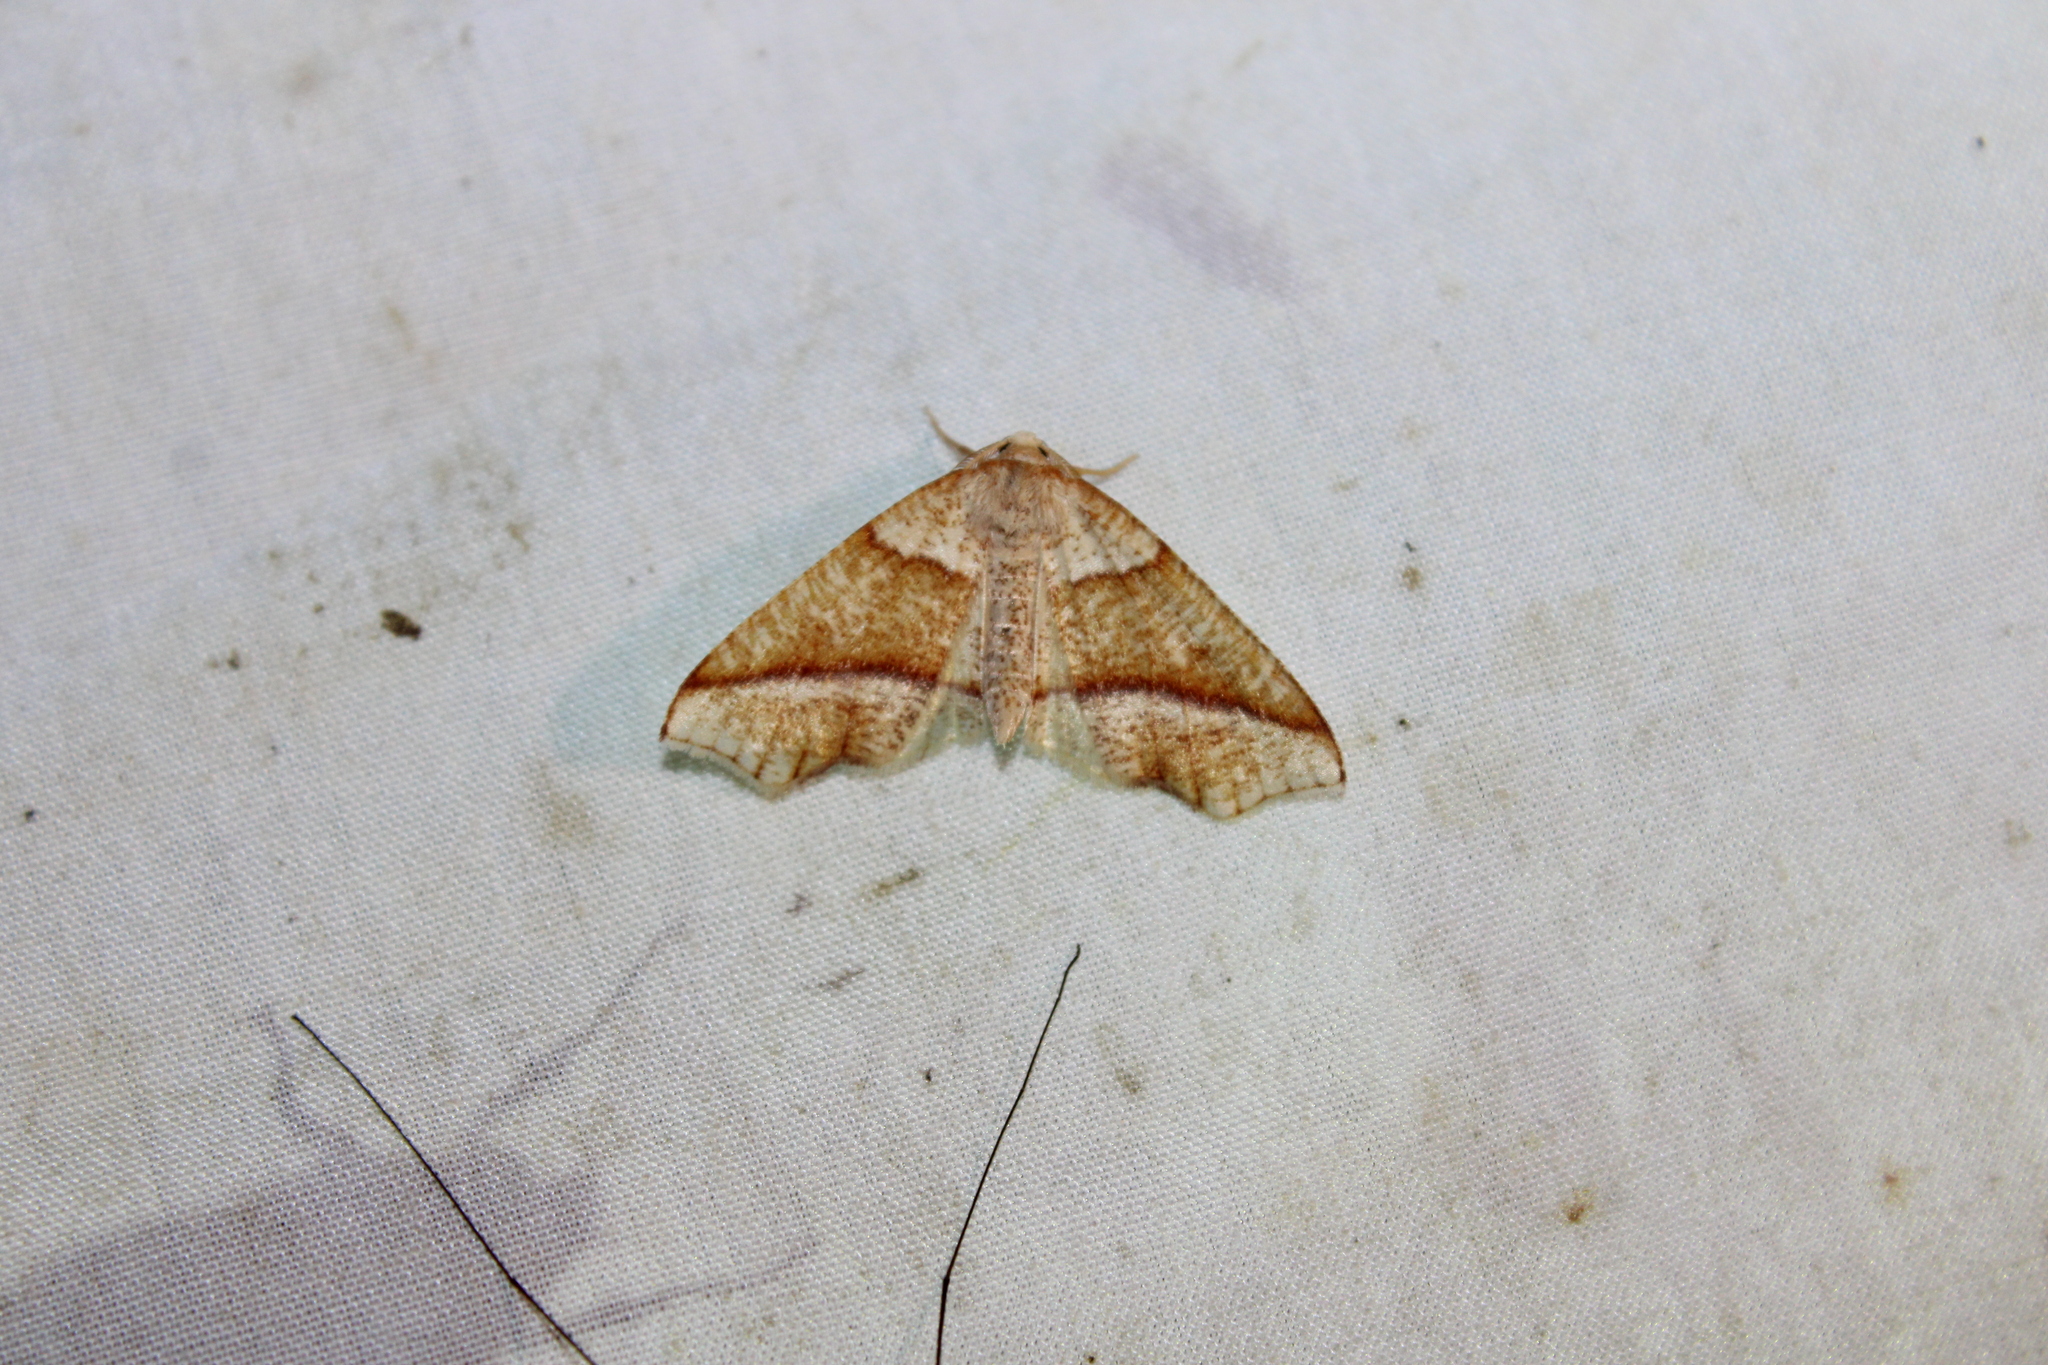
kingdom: Animalia
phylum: Arthropoda
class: Insecta
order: Lepidoptera
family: Geometridae
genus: Plagodis
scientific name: Plagodis alcoolaria
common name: Hollow-spotted plagodis
